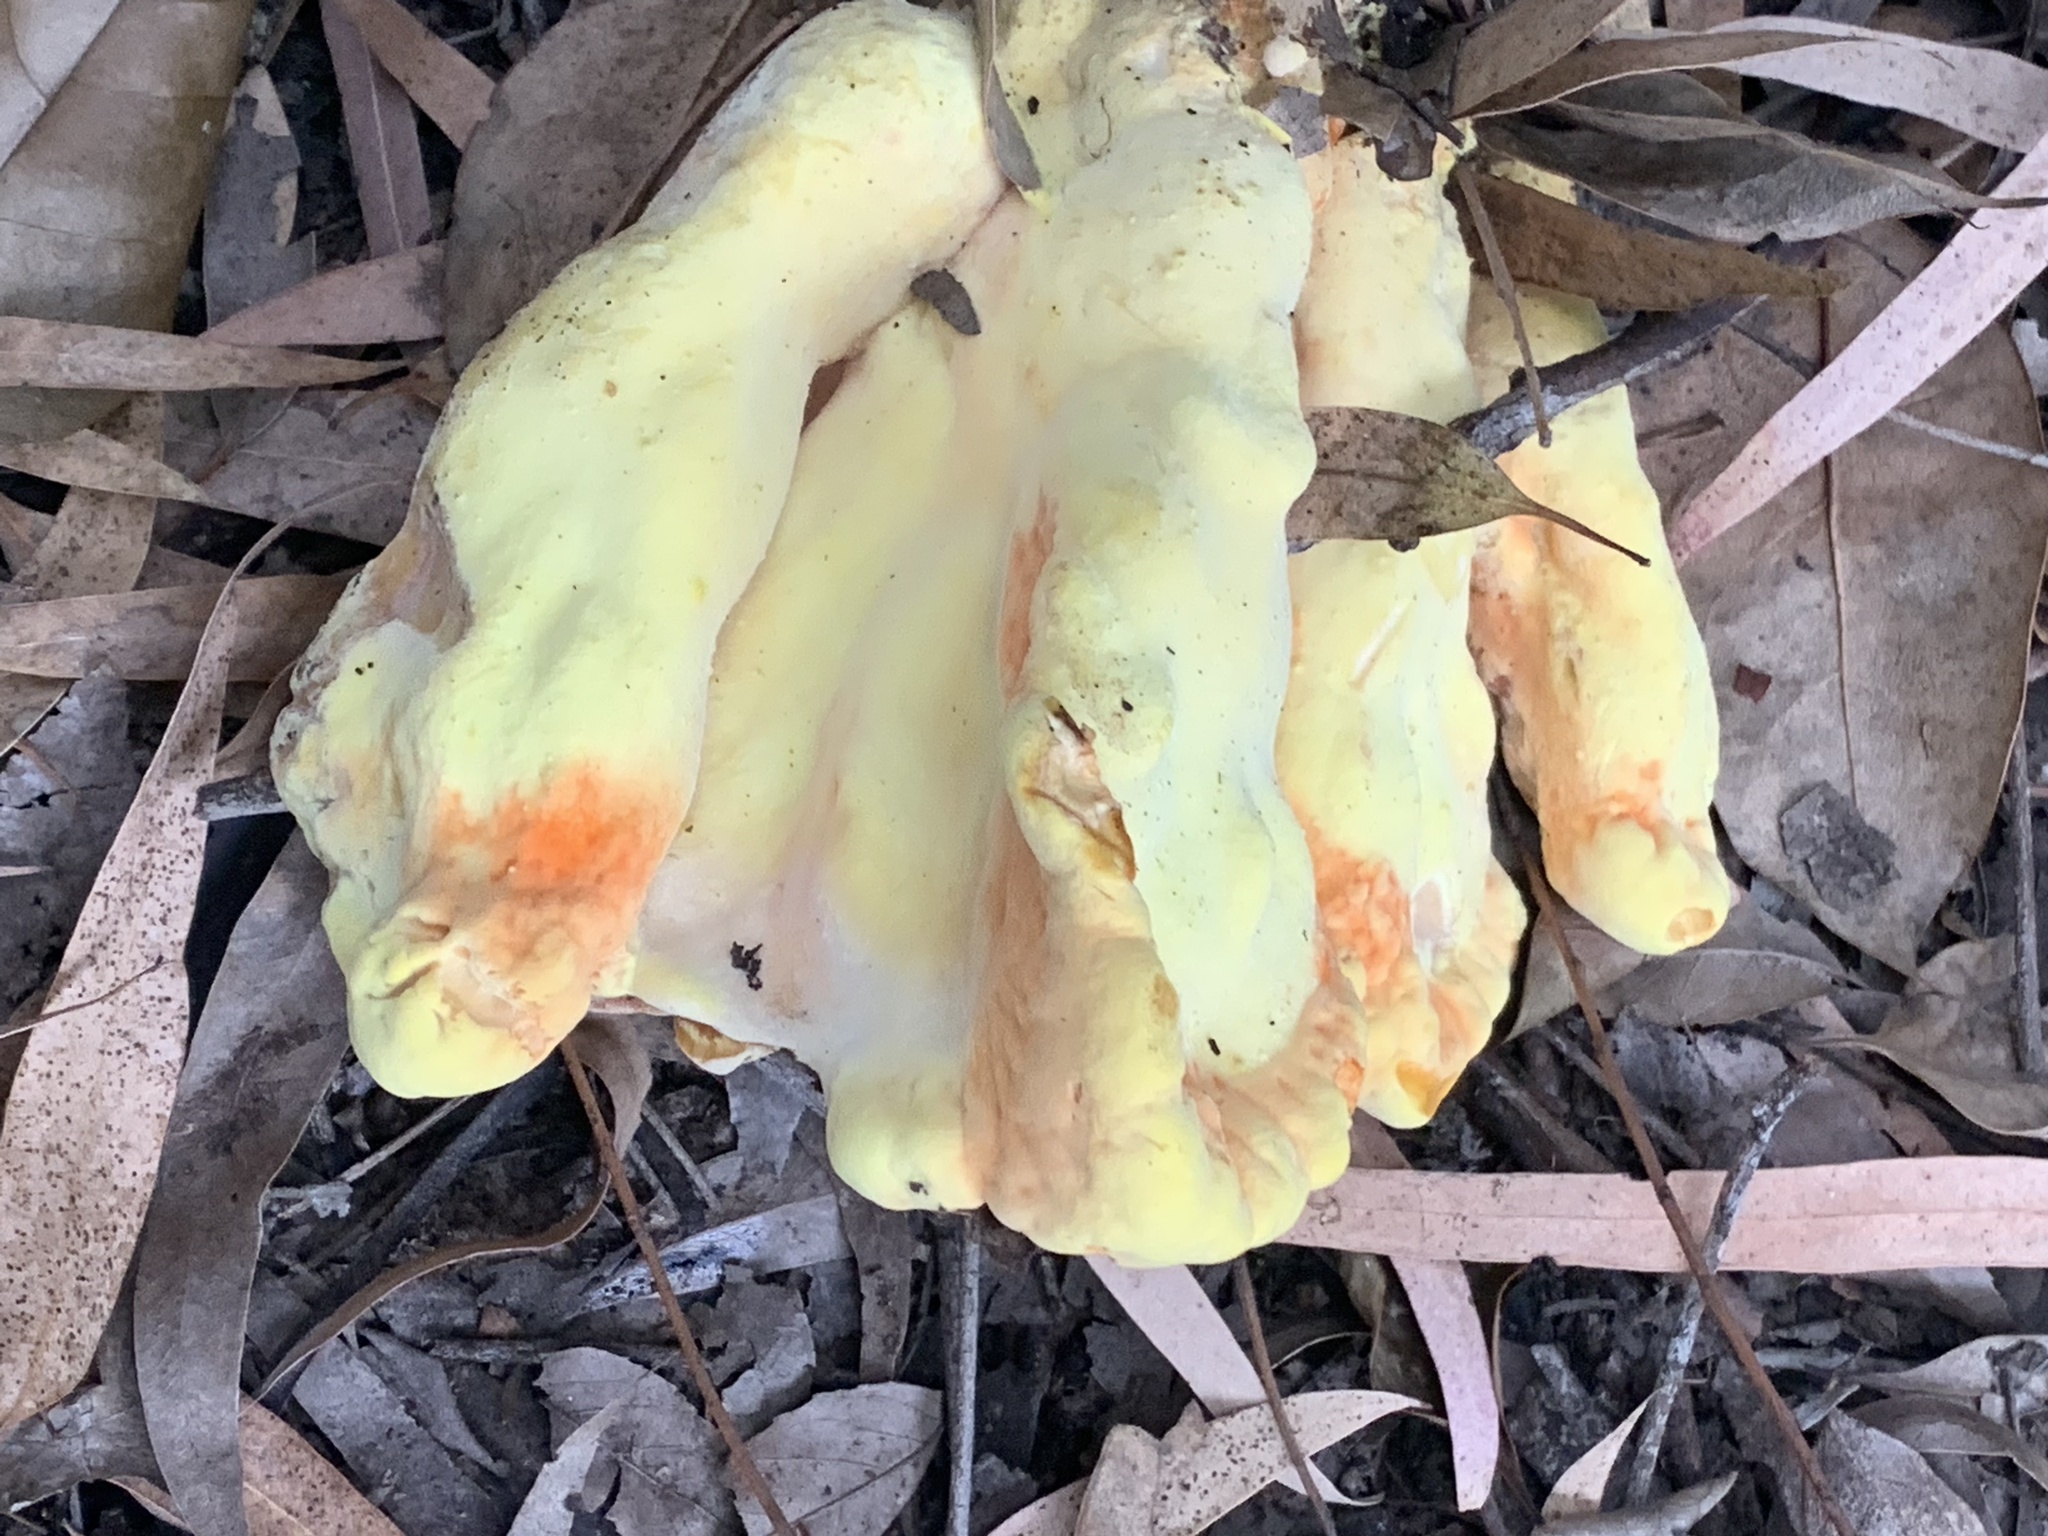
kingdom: Fungi
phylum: Basidiomycota
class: Agaricomycetes
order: Polyporales
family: Laetiporaceae
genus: Laetiporus
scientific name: Laetiporus gilbertsonii
